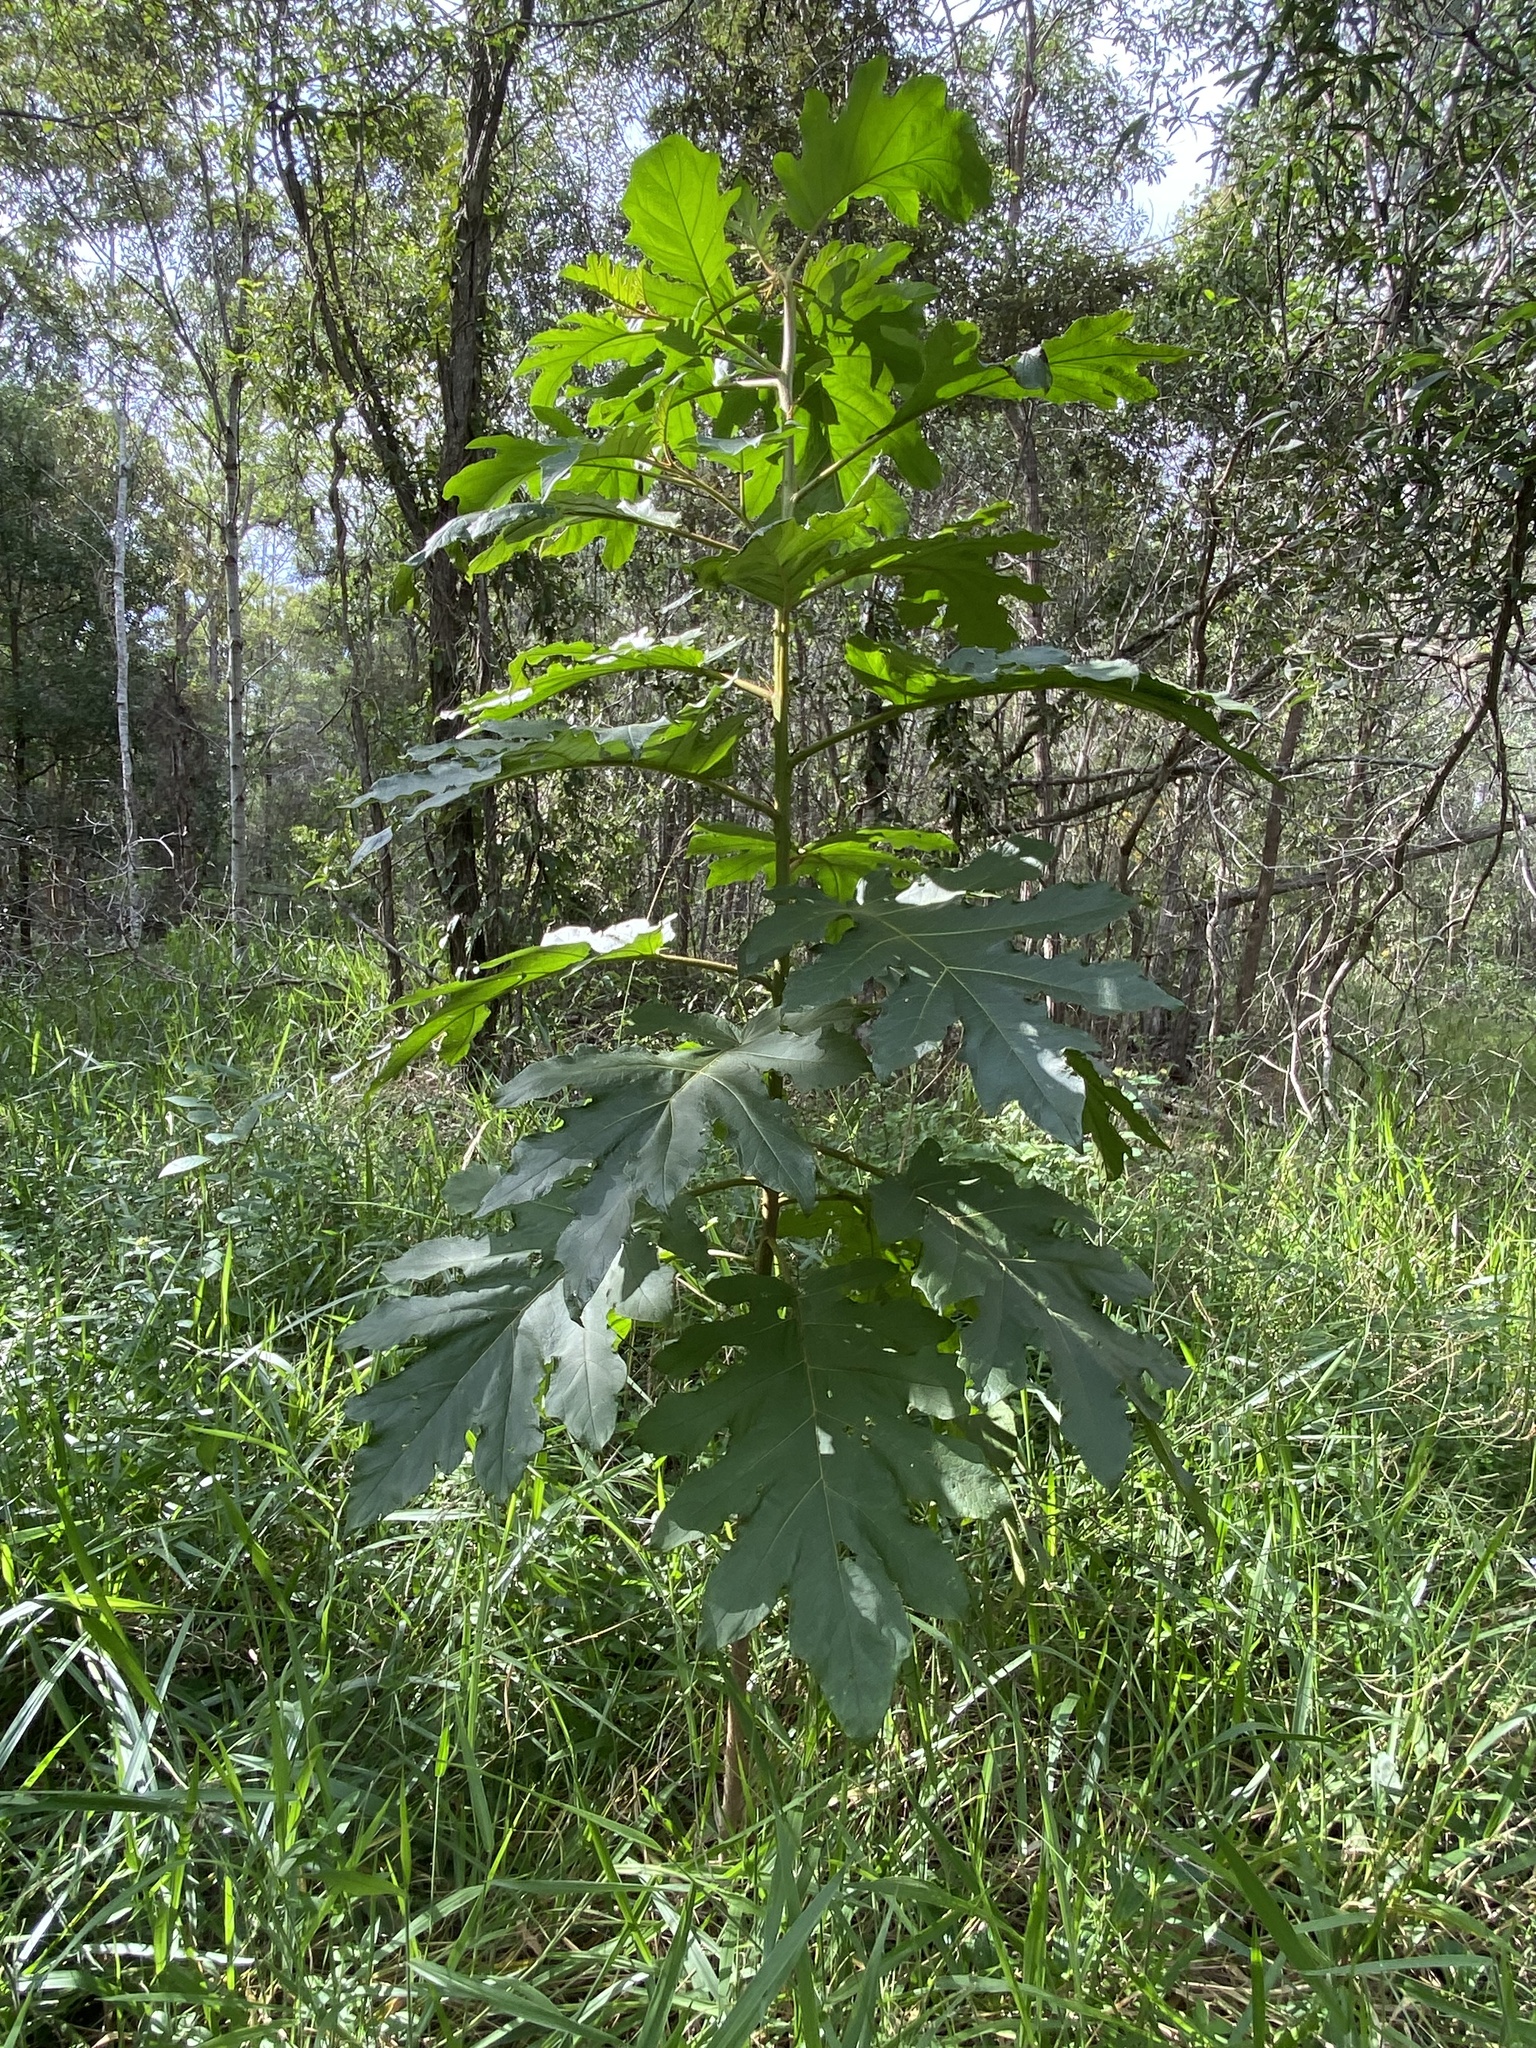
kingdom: Plantae
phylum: Tracheophyta
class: Magnoliopsida
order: Solanales
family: Solanaceae
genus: Solanum
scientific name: Solanum chrysotrichum
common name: Nightshade
